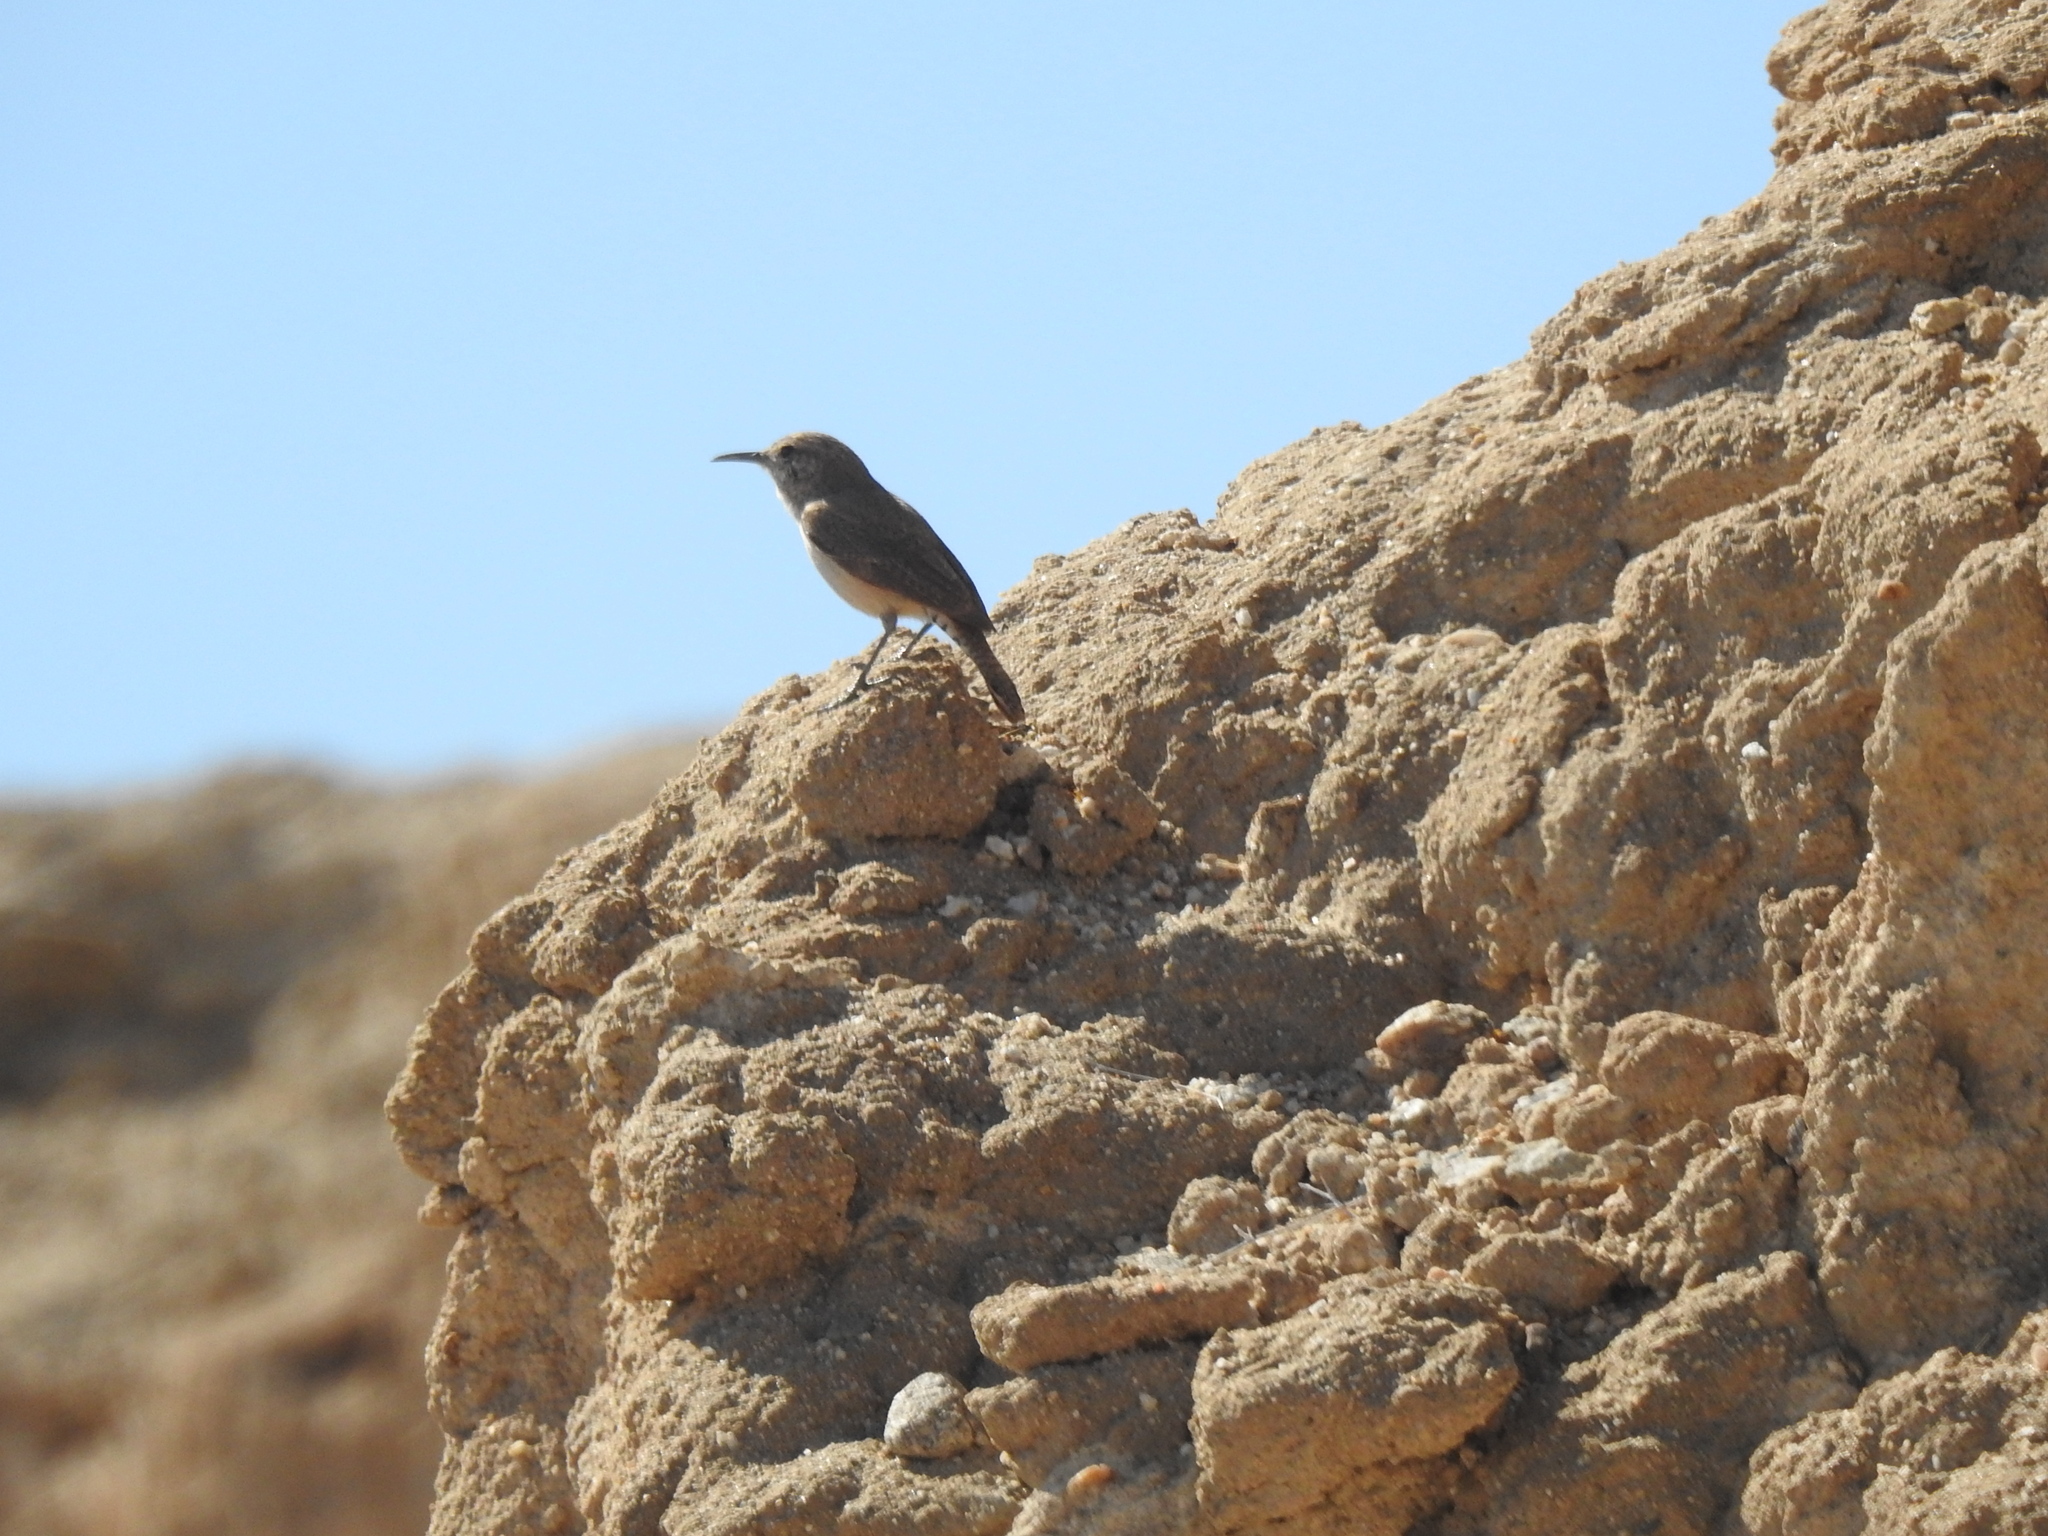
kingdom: Animalia
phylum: Chordata
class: Aves
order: Passeriformes
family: Troglodytidae
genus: Salpinctes
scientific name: Salpinctes obsoletus
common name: Rock wren
